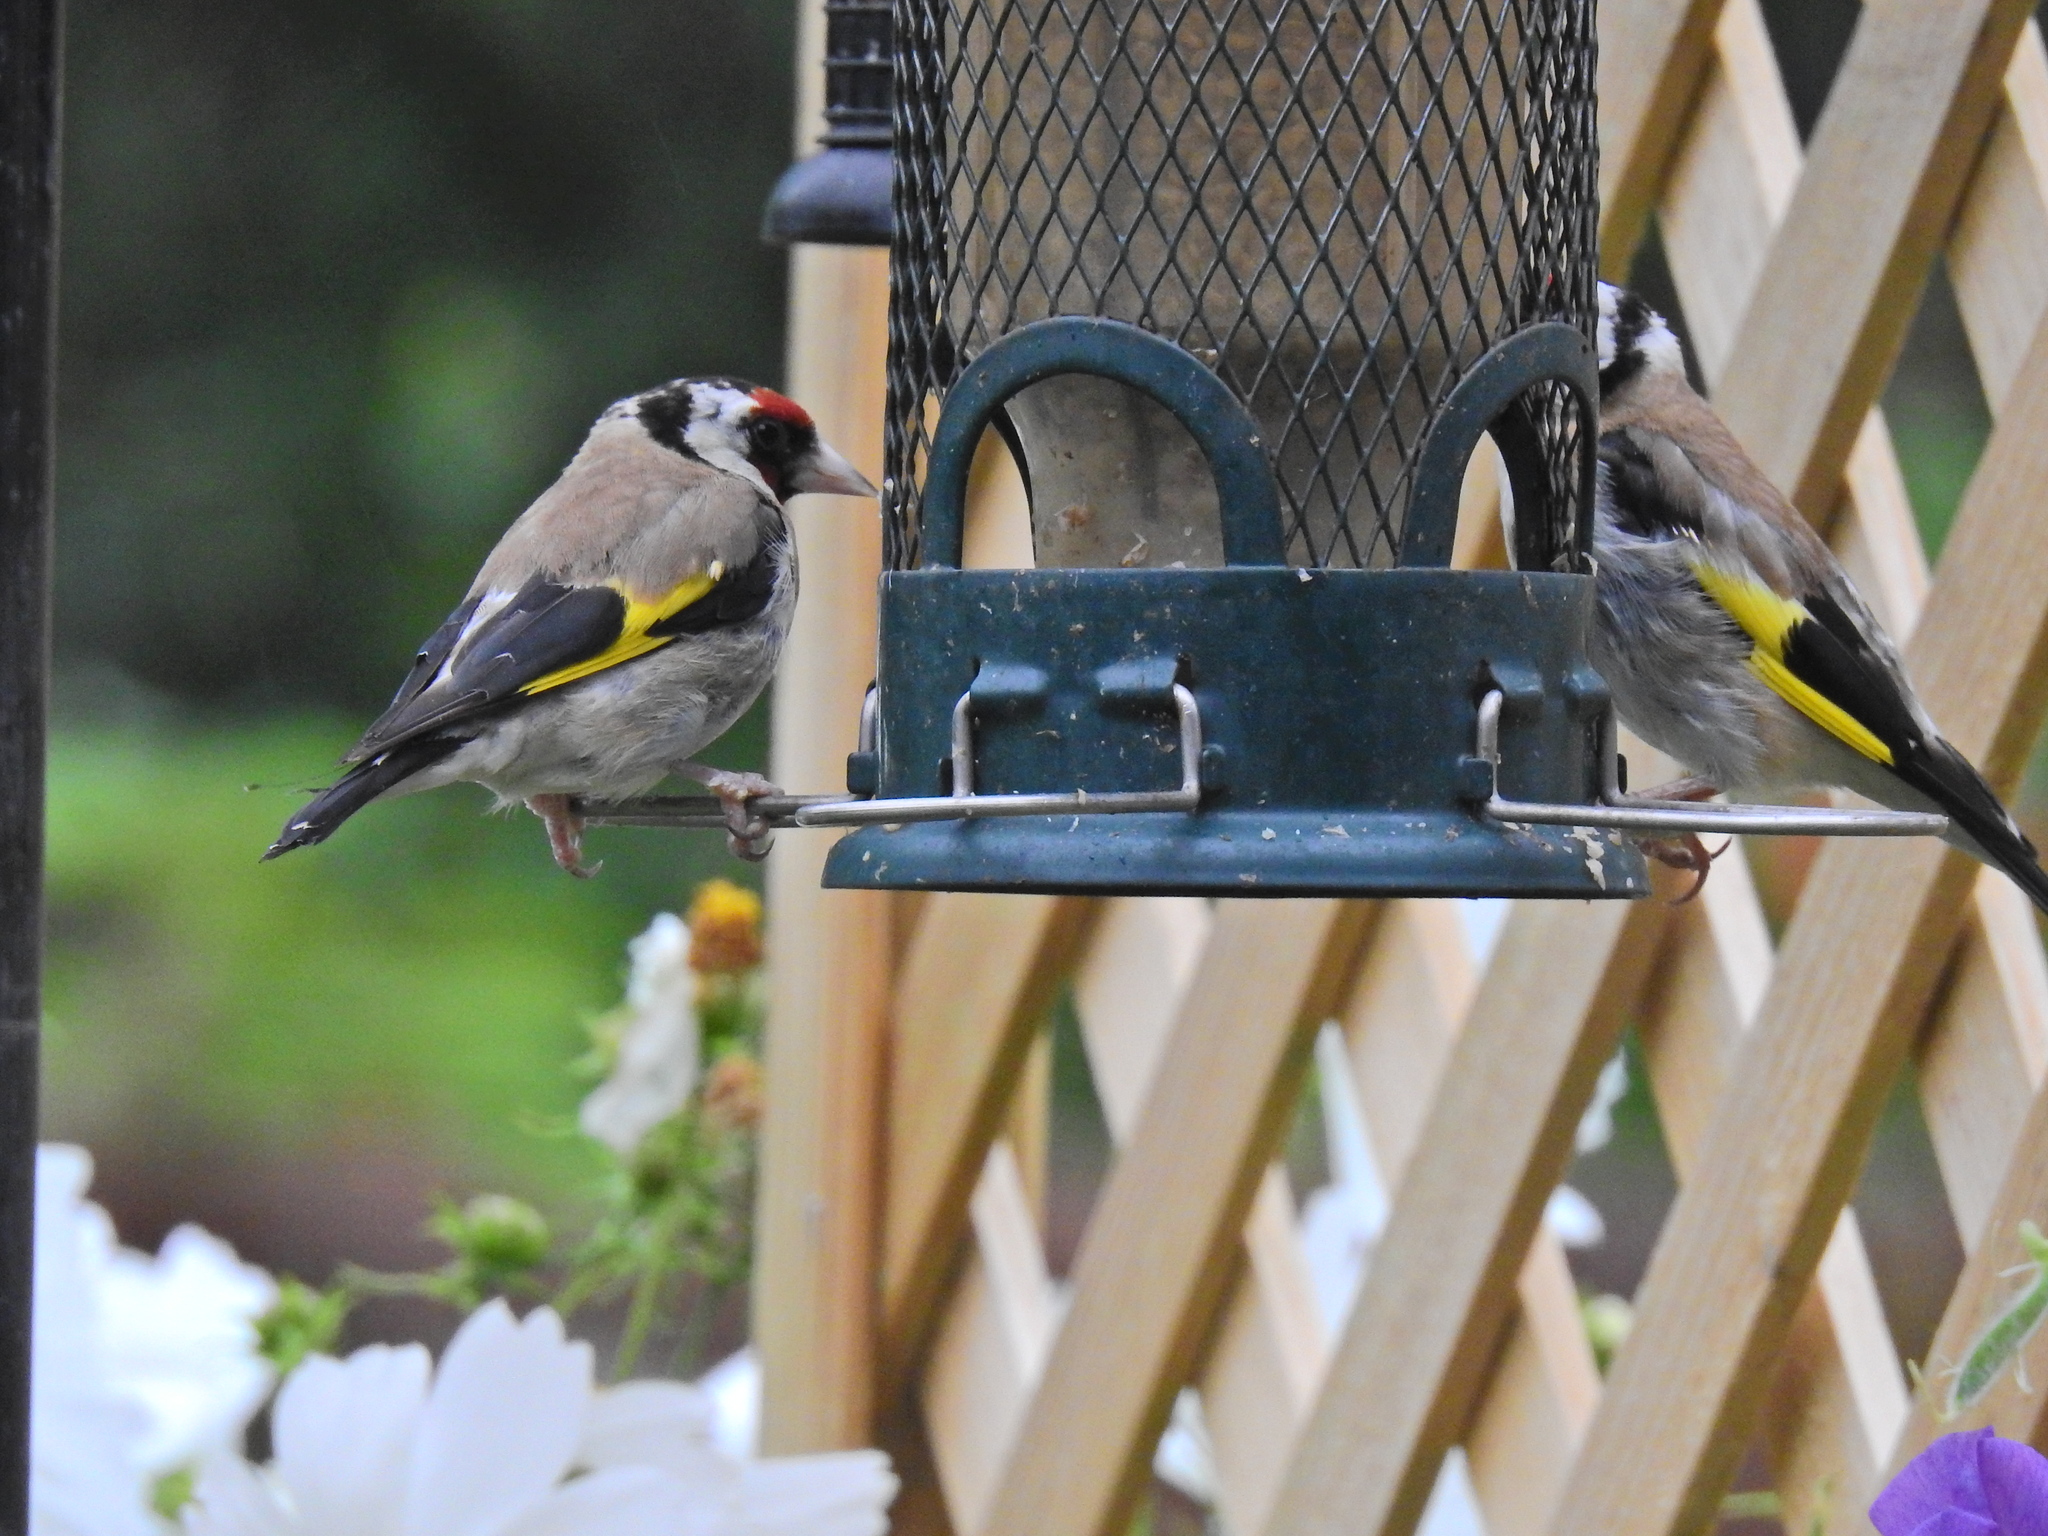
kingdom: Animalia
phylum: Chordata
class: Aves
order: Passeriformes
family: Fringillidae
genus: Carduelis
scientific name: Carduelis carduelis
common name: European goldfinch
